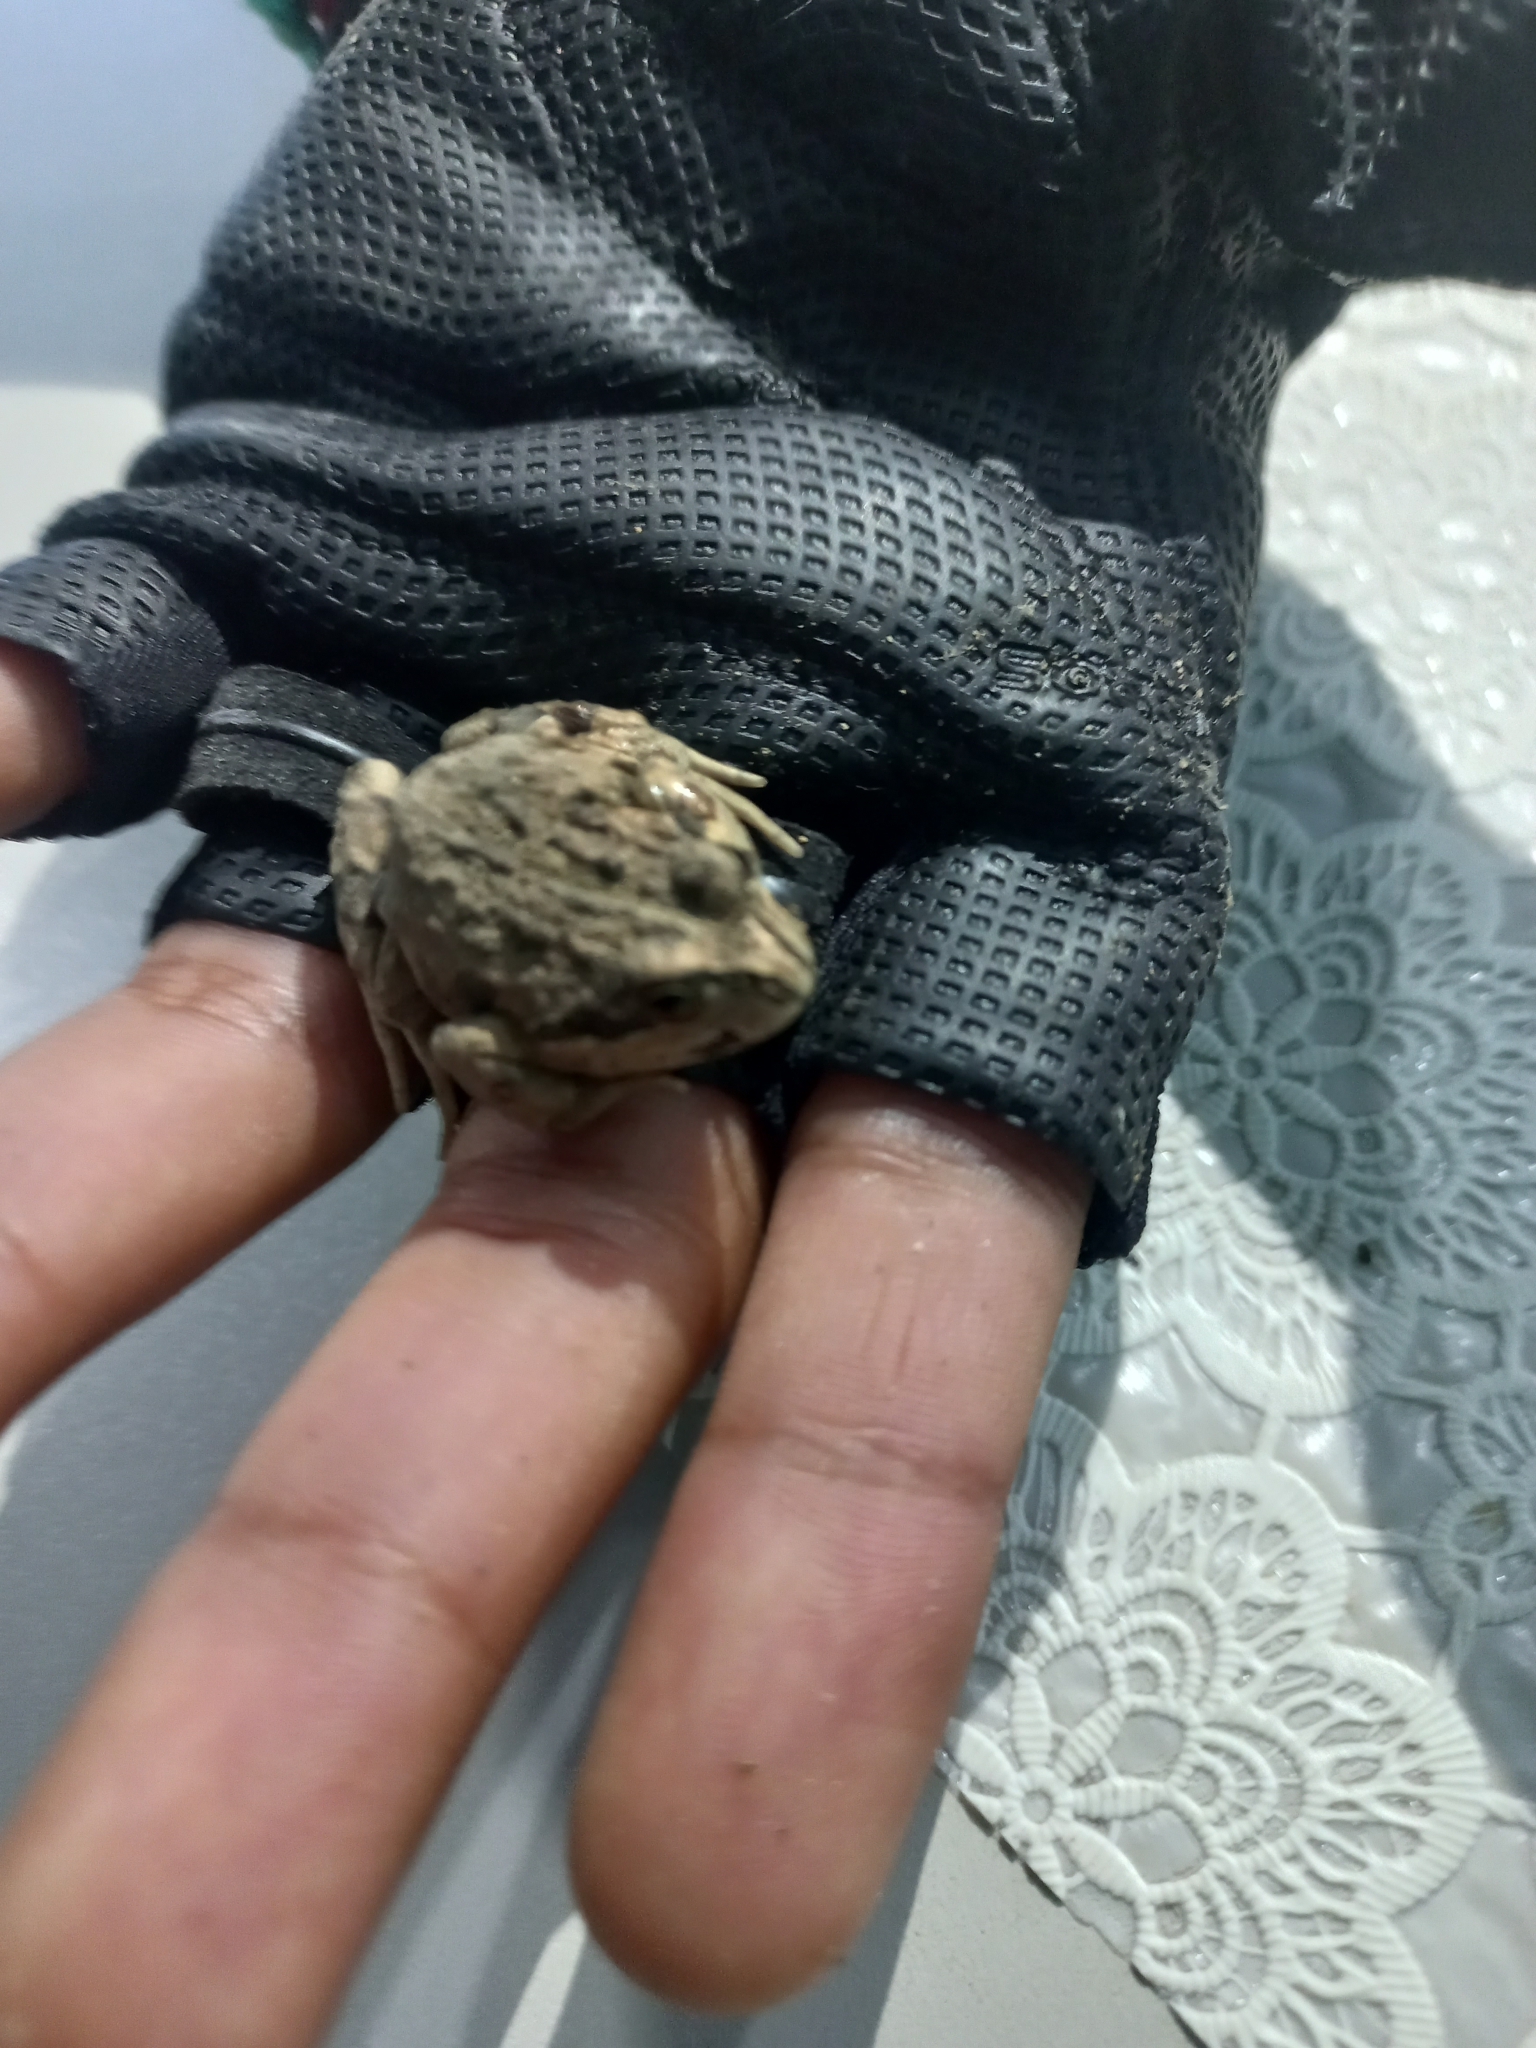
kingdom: Animalia
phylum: Chordata
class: Amphibia
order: Anura
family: Leptodactylidae
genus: Pleurodema
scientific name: Pleurodema thaul
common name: Chile four-eyed frog
